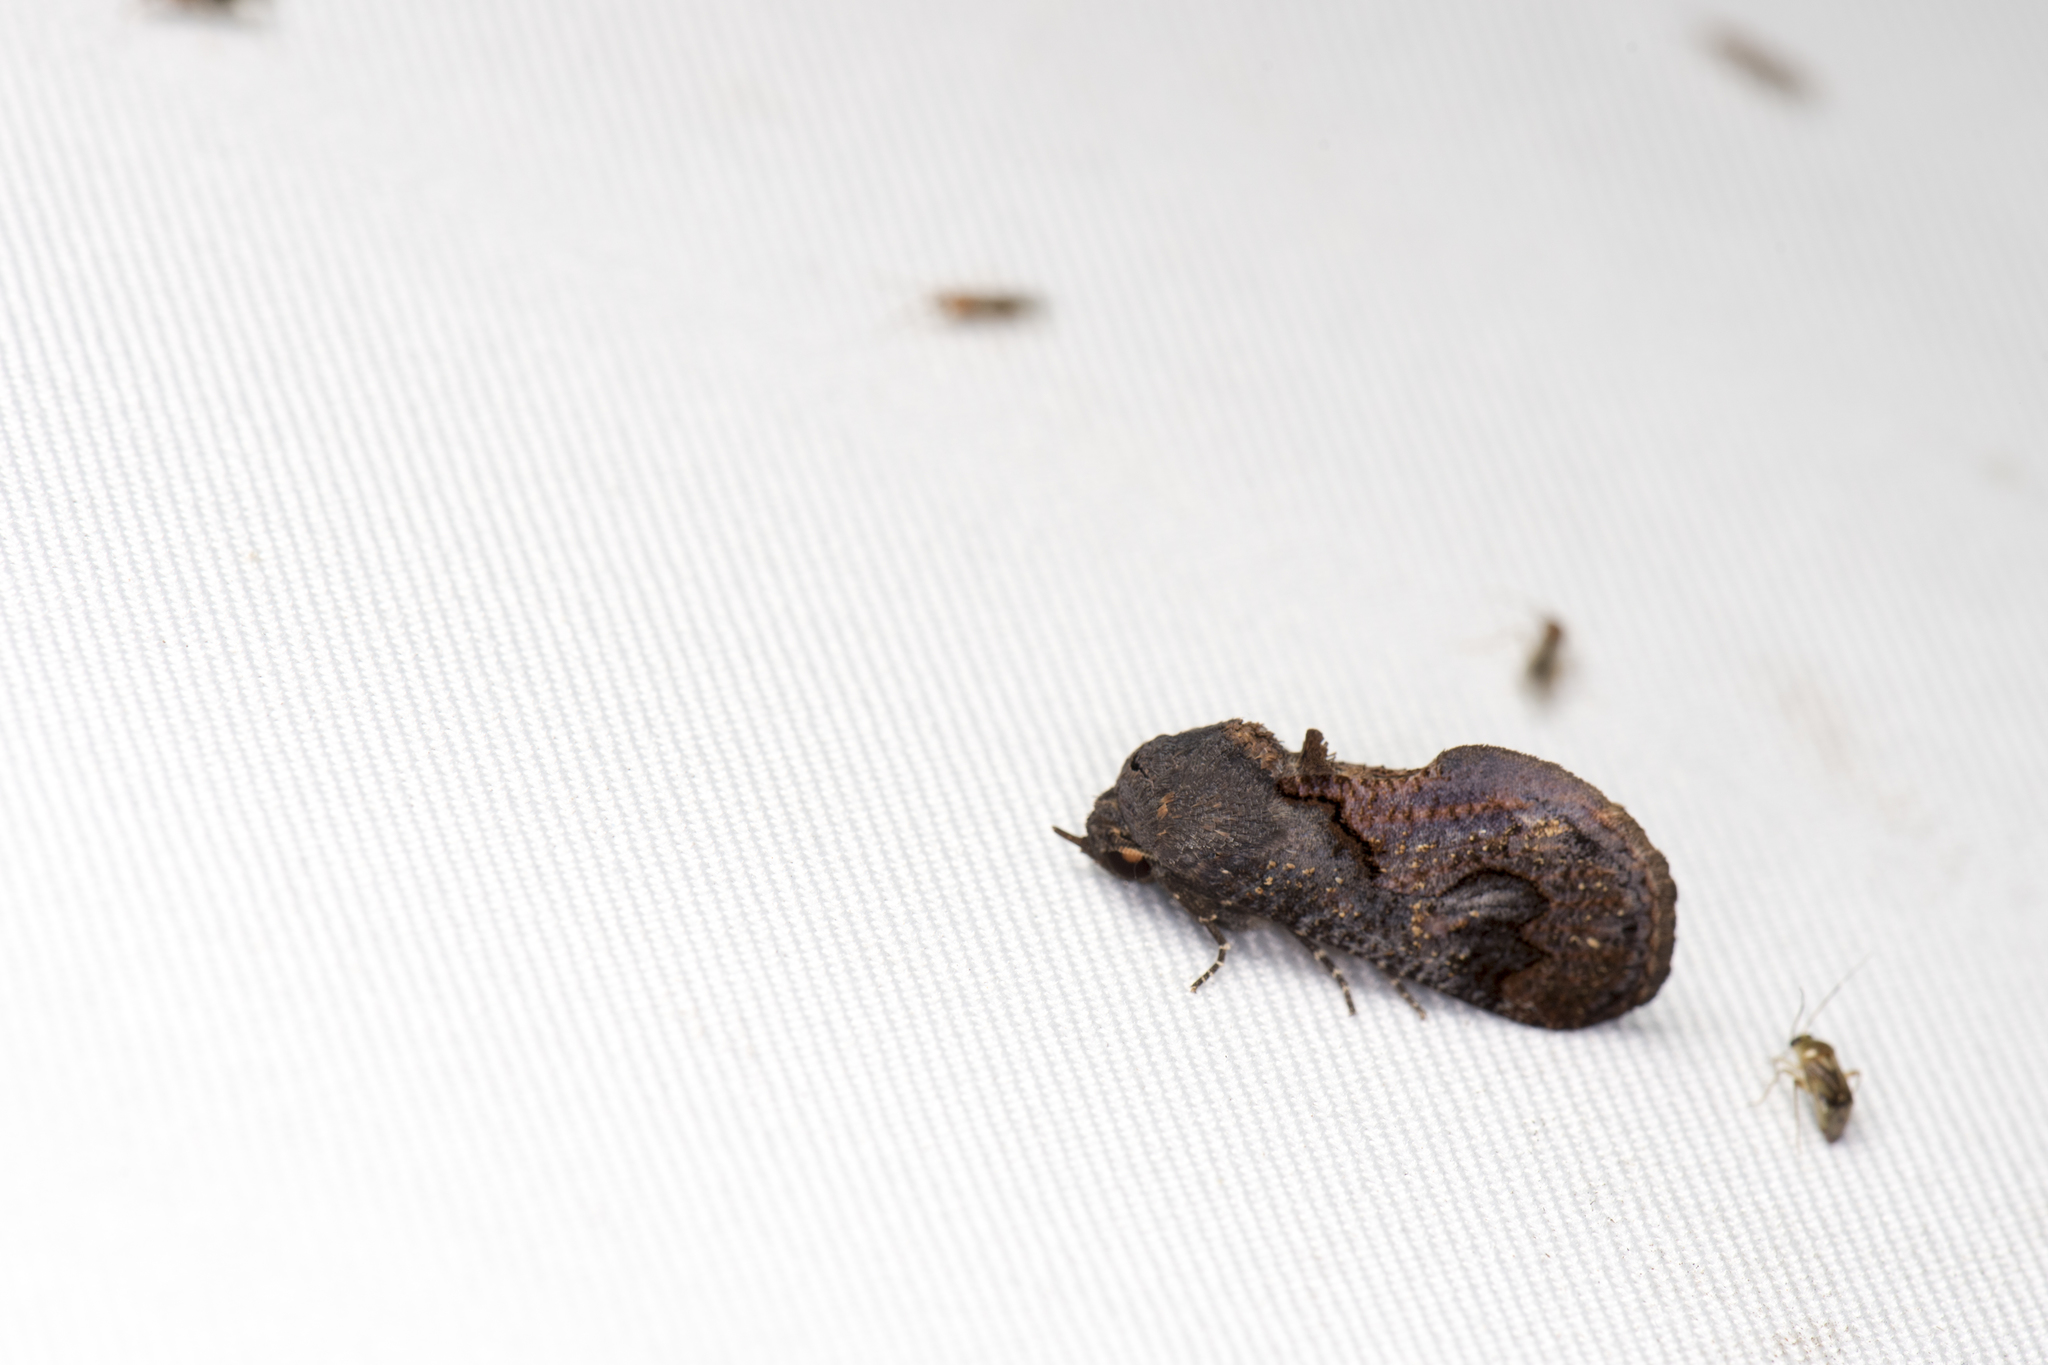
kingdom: Animalia
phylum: Arthropoda
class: Insecta
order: Lepidoptera
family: Erebidae
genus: Batracharta
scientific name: Batracharta divisa
